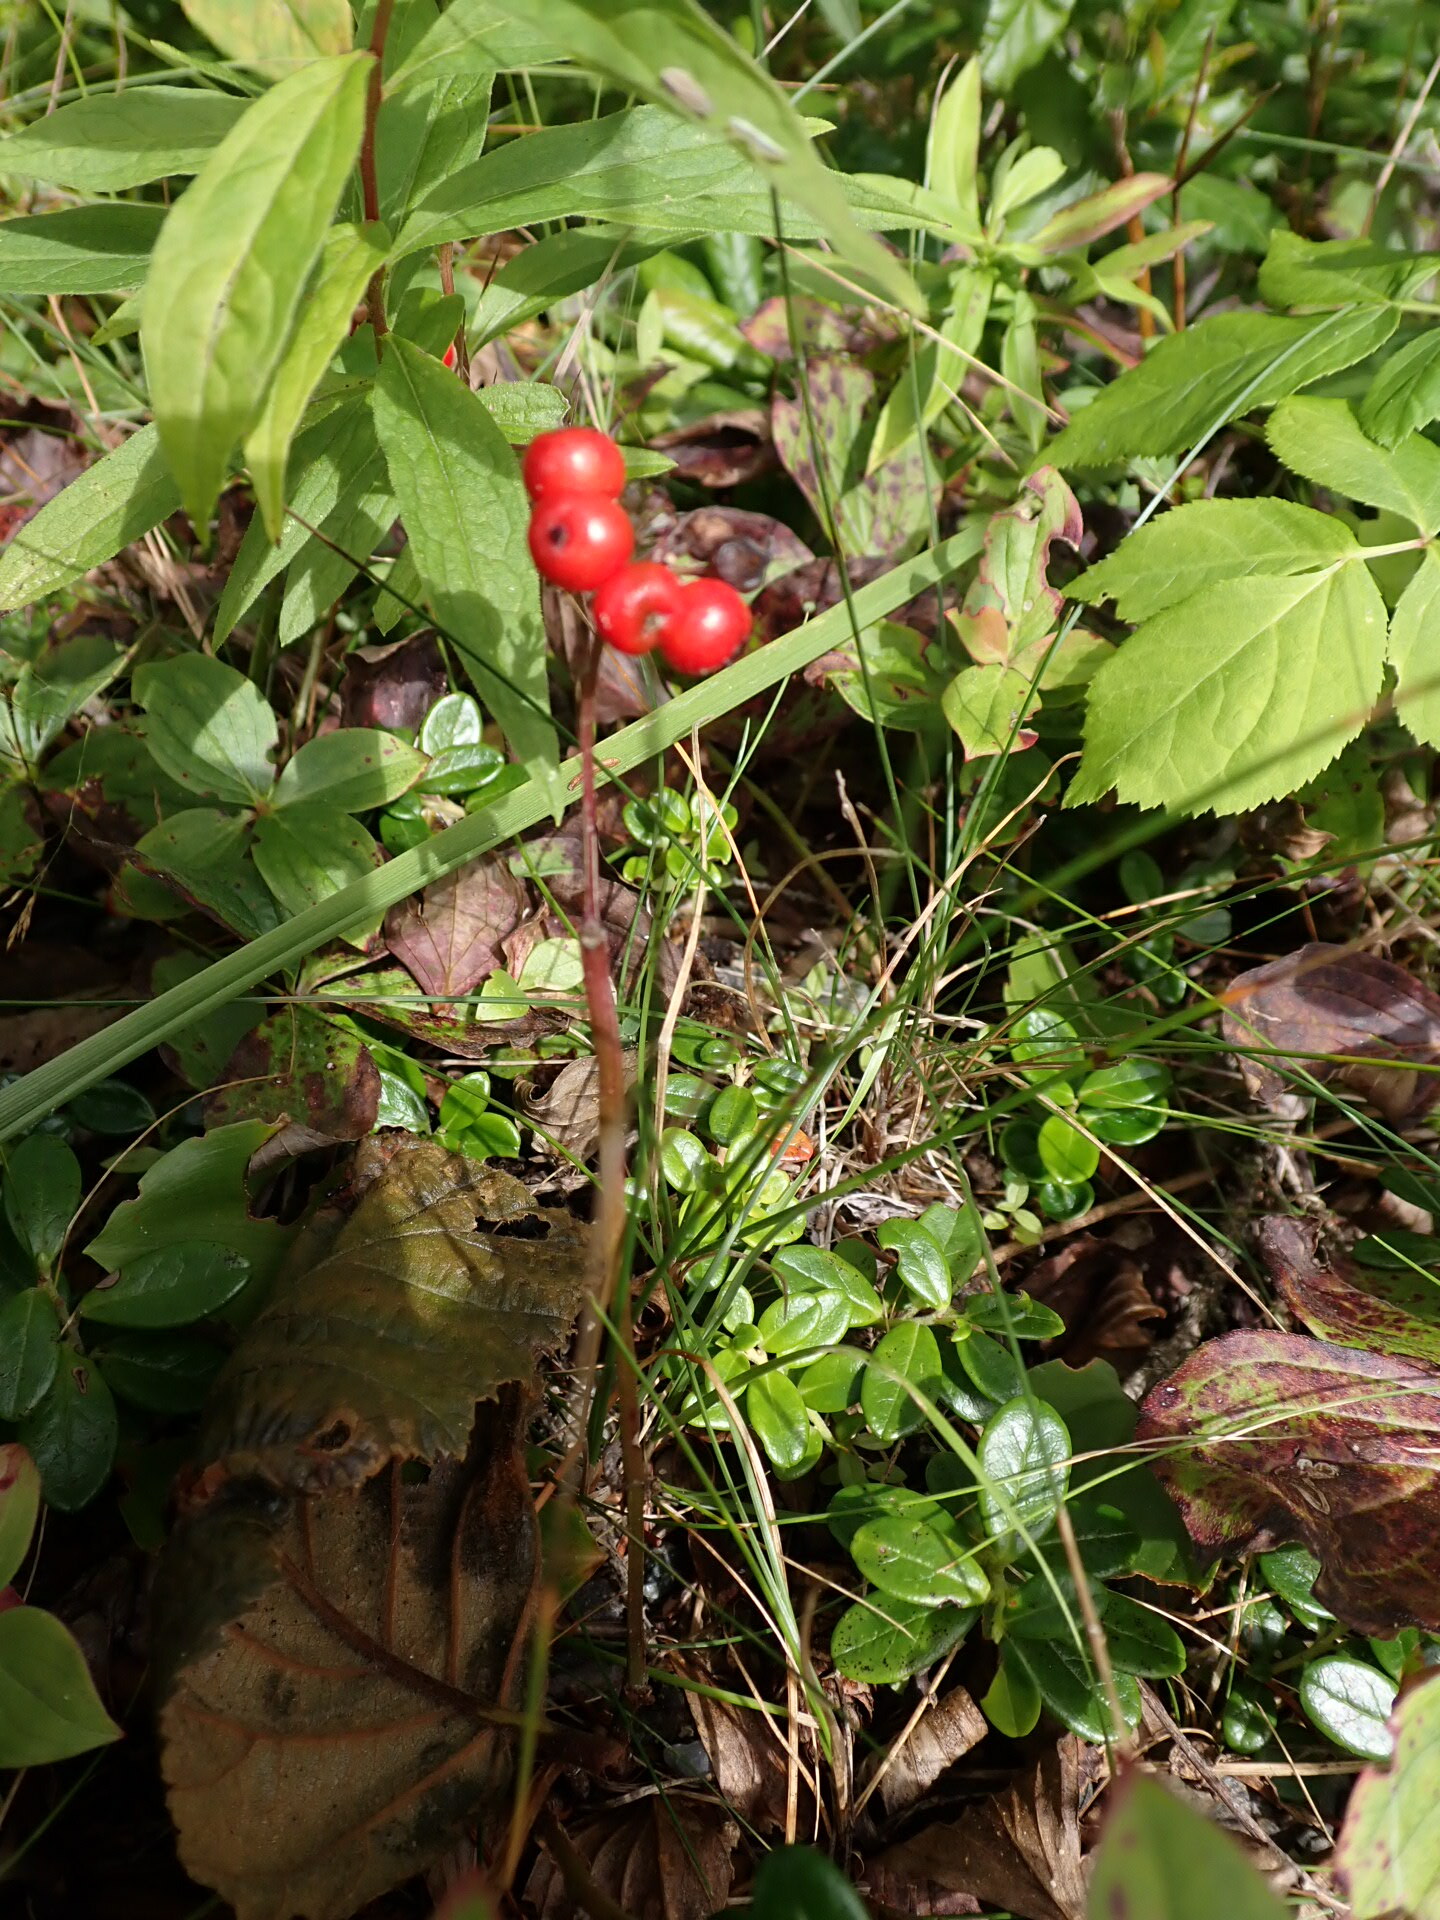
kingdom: Plantae
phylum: Tracheophyta
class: Magnoliopsida
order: Ericales
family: Ericaceae
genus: Vaccinium
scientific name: Vaccinium vitis-idaea
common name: Cowberry
